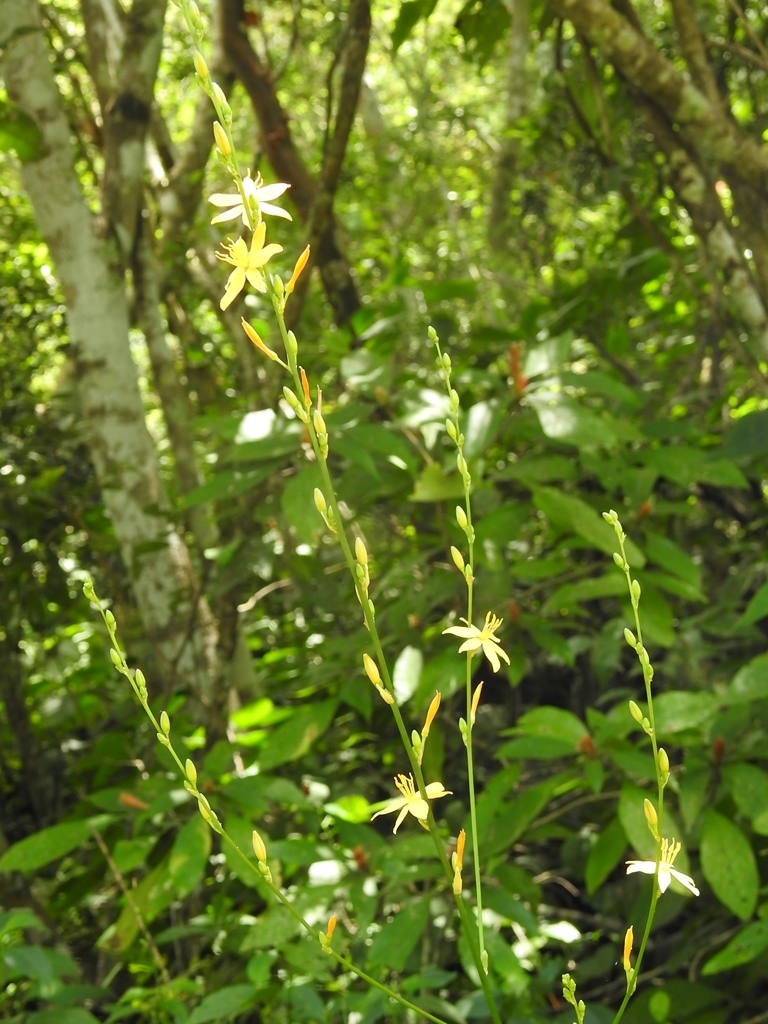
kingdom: Plantae
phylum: Tracheophyta
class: Liliopsida
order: Asparagales
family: Asparagaceae
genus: Echeandia
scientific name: Echeandia breedlovei
